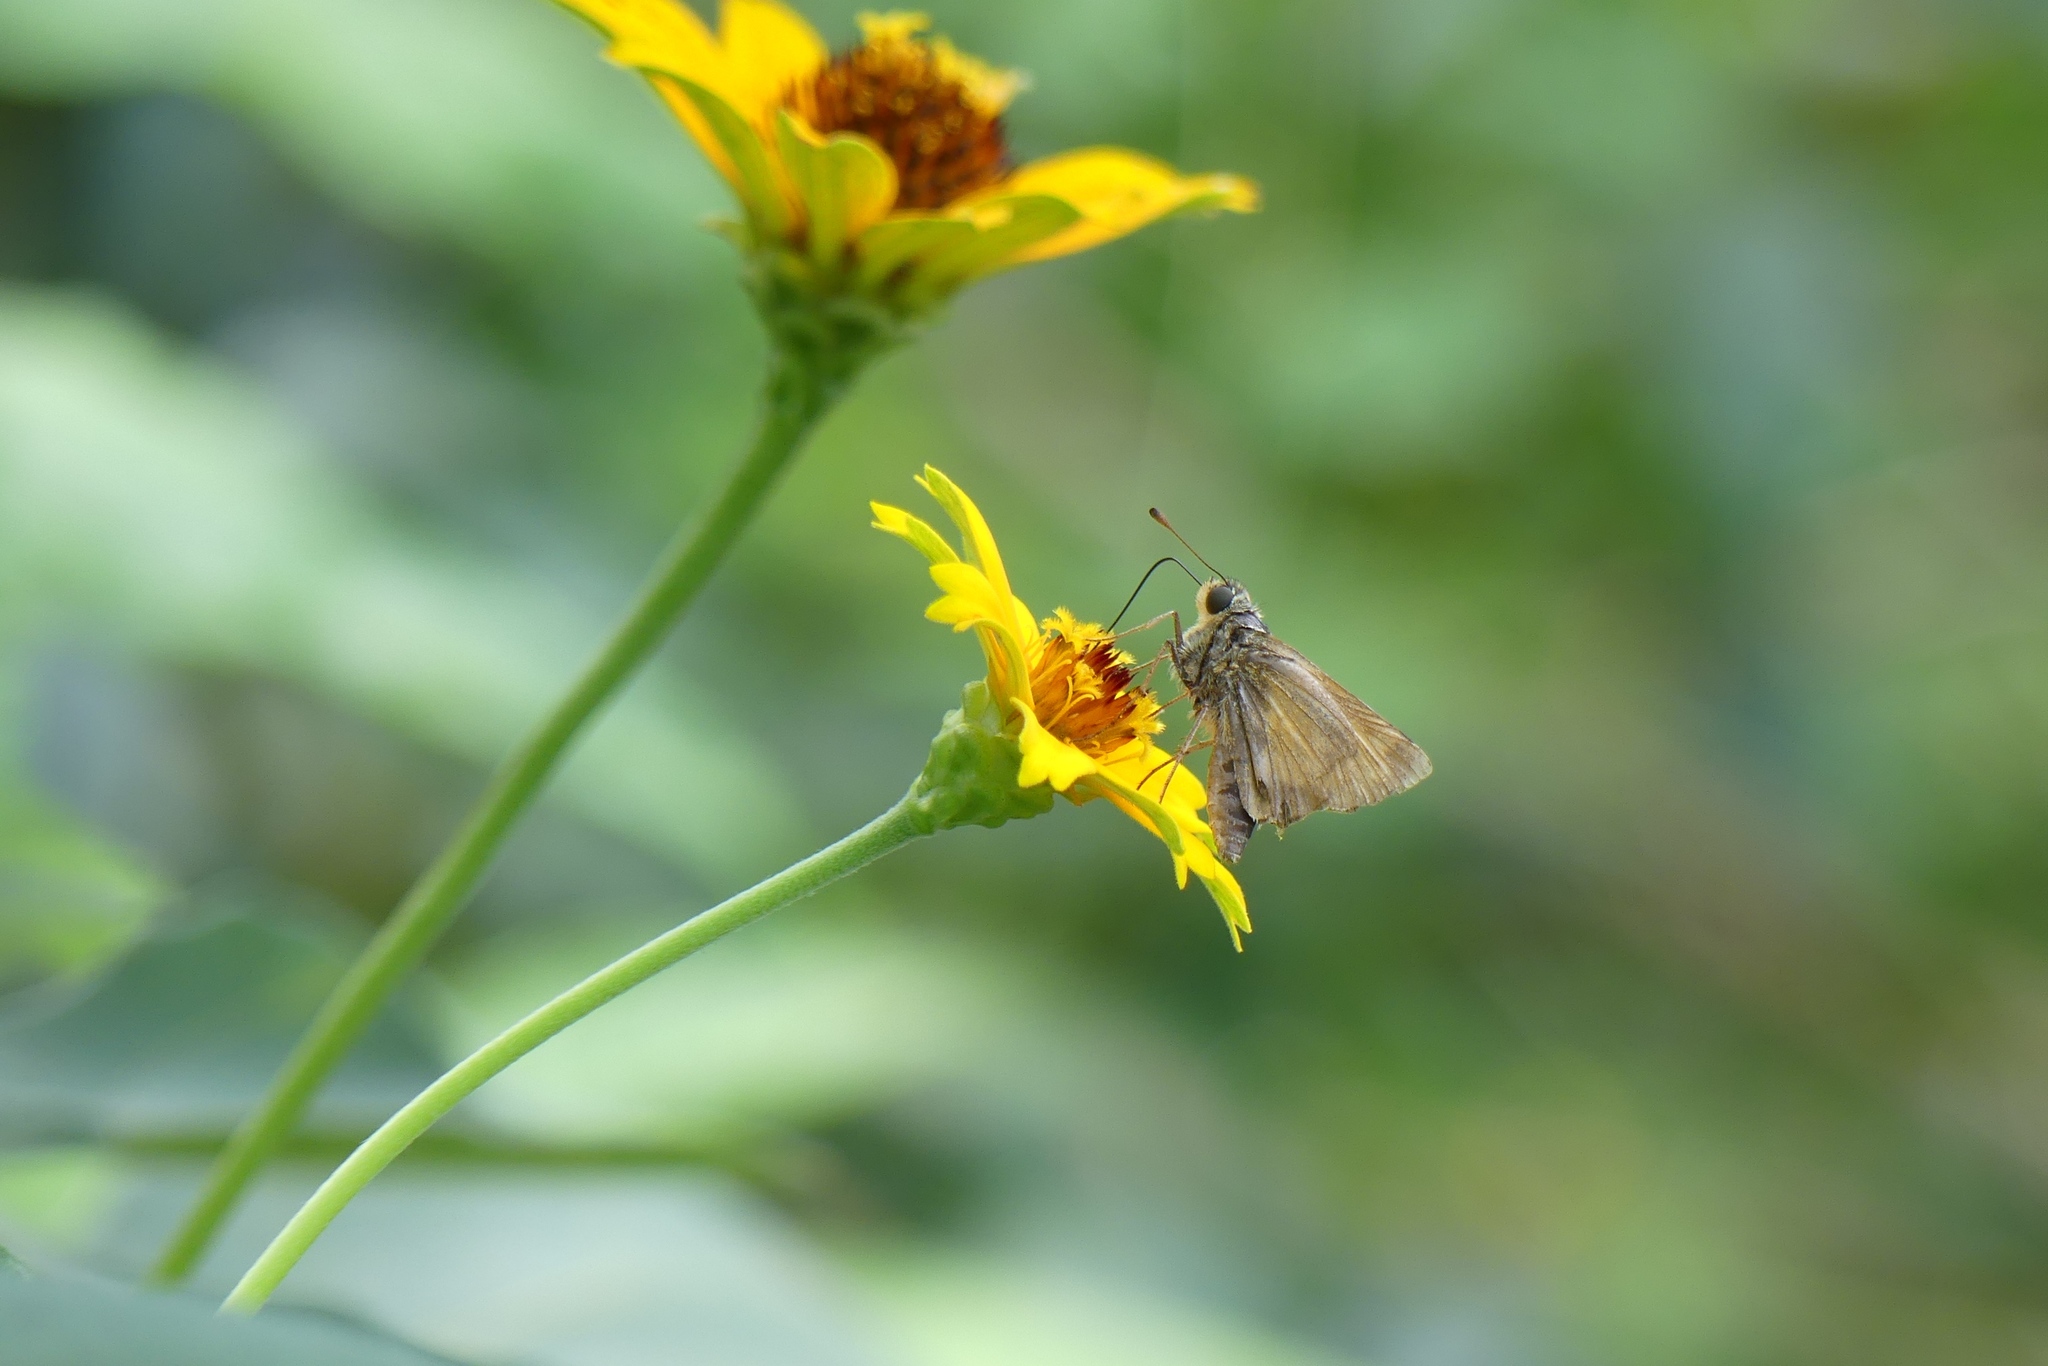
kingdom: Animalia
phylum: Arthropoda
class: Insecta
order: Lepidoptera
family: Hesperiidae
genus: Atalopedes
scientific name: Atalopedes
